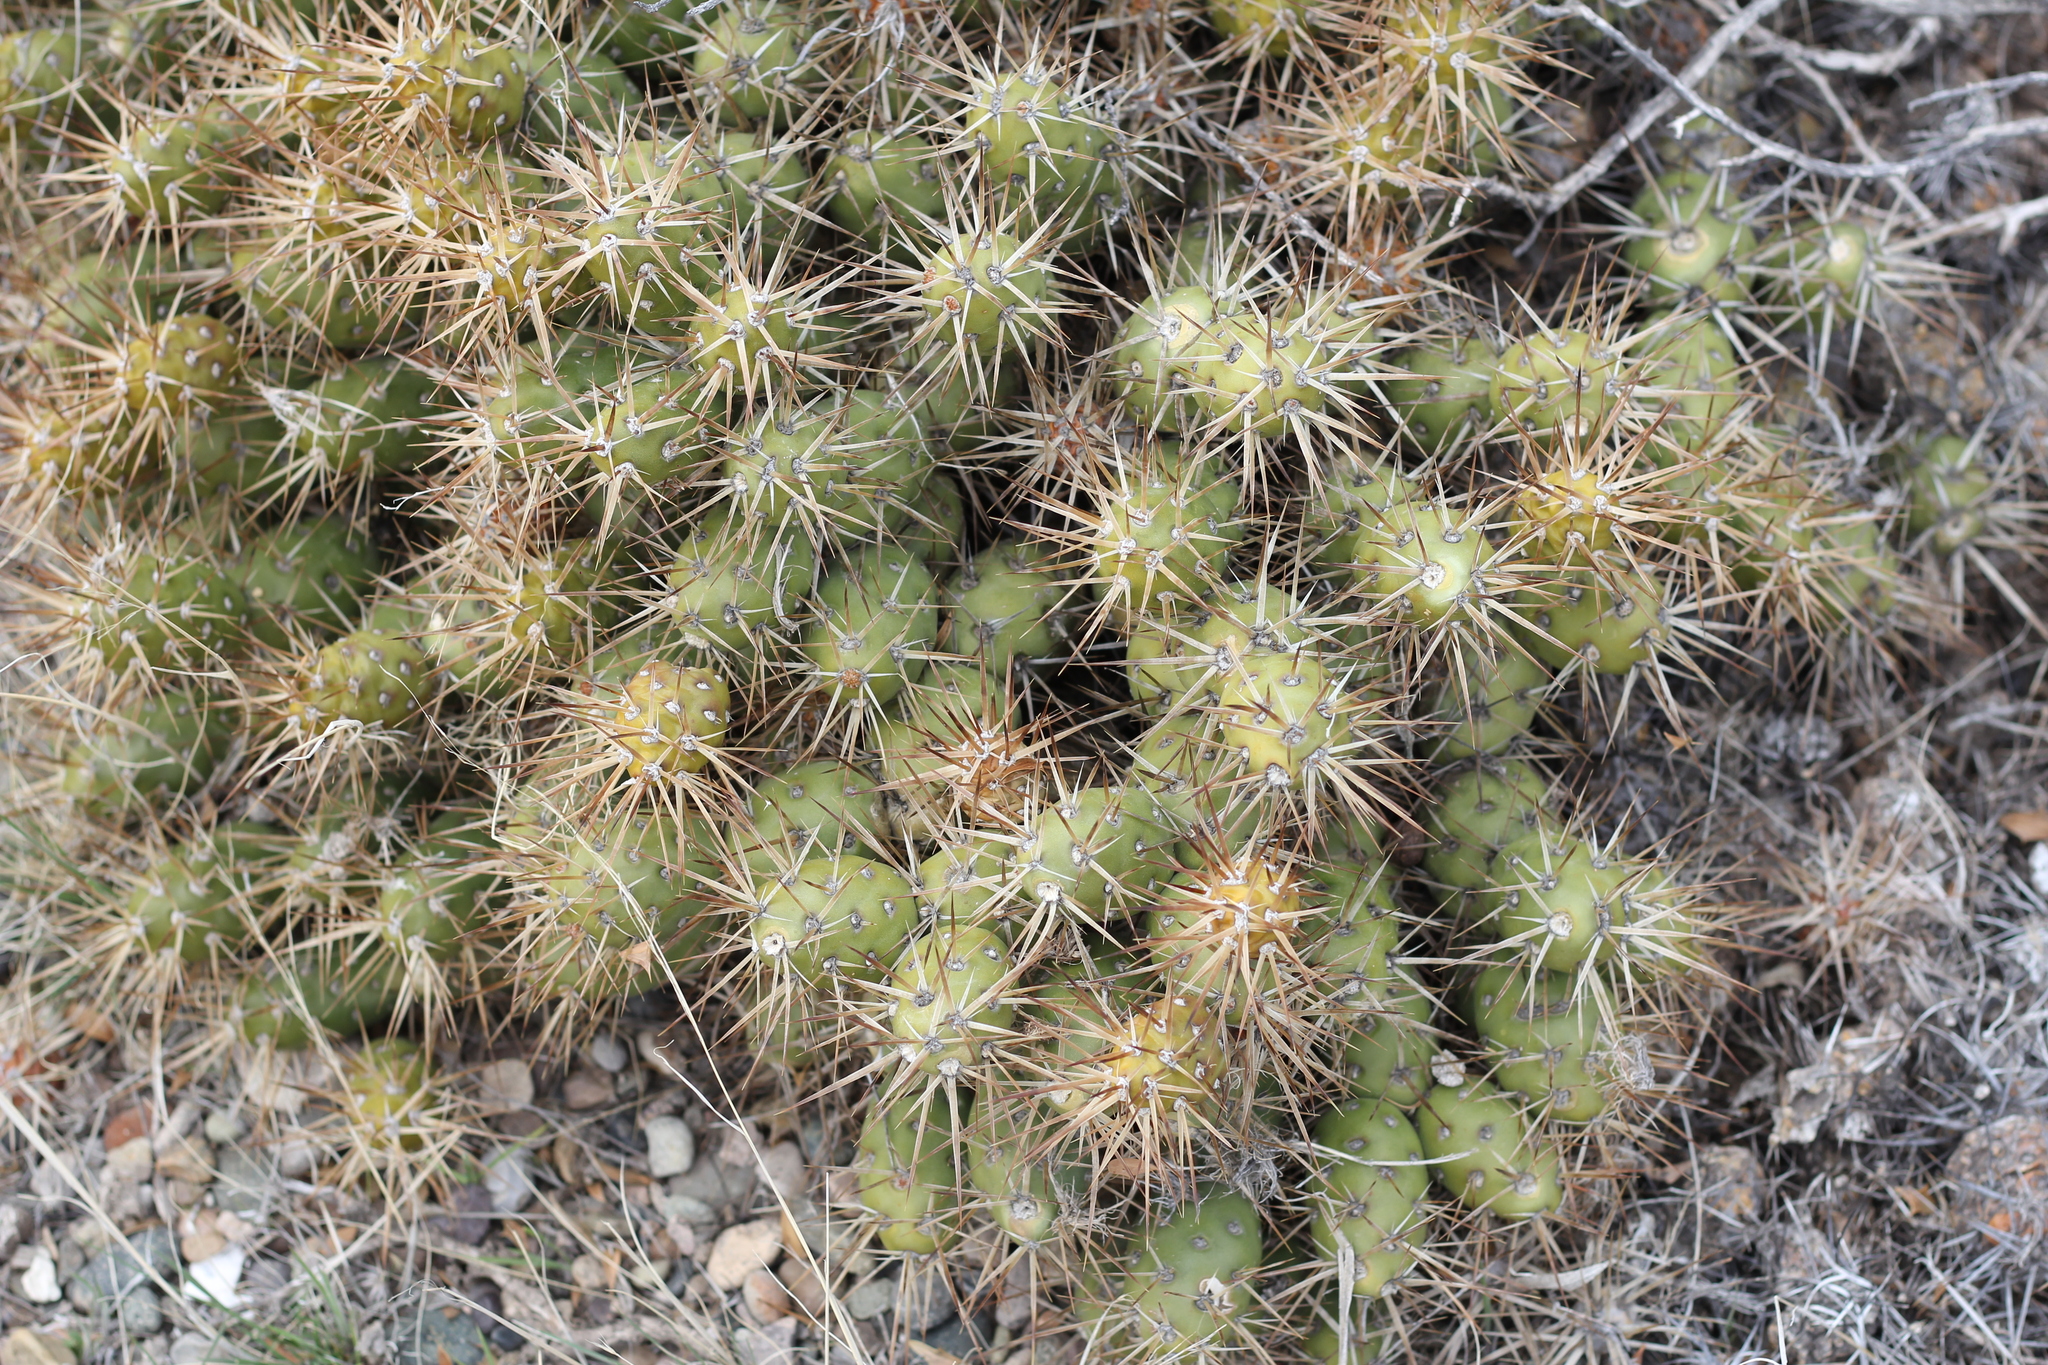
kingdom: Plantae
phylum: Tracheophyta
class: Magnoliopsida
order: Caryophyllales
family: Cactaceae
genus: Maihueniopsis
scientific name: Maihueniopsis darwinii
